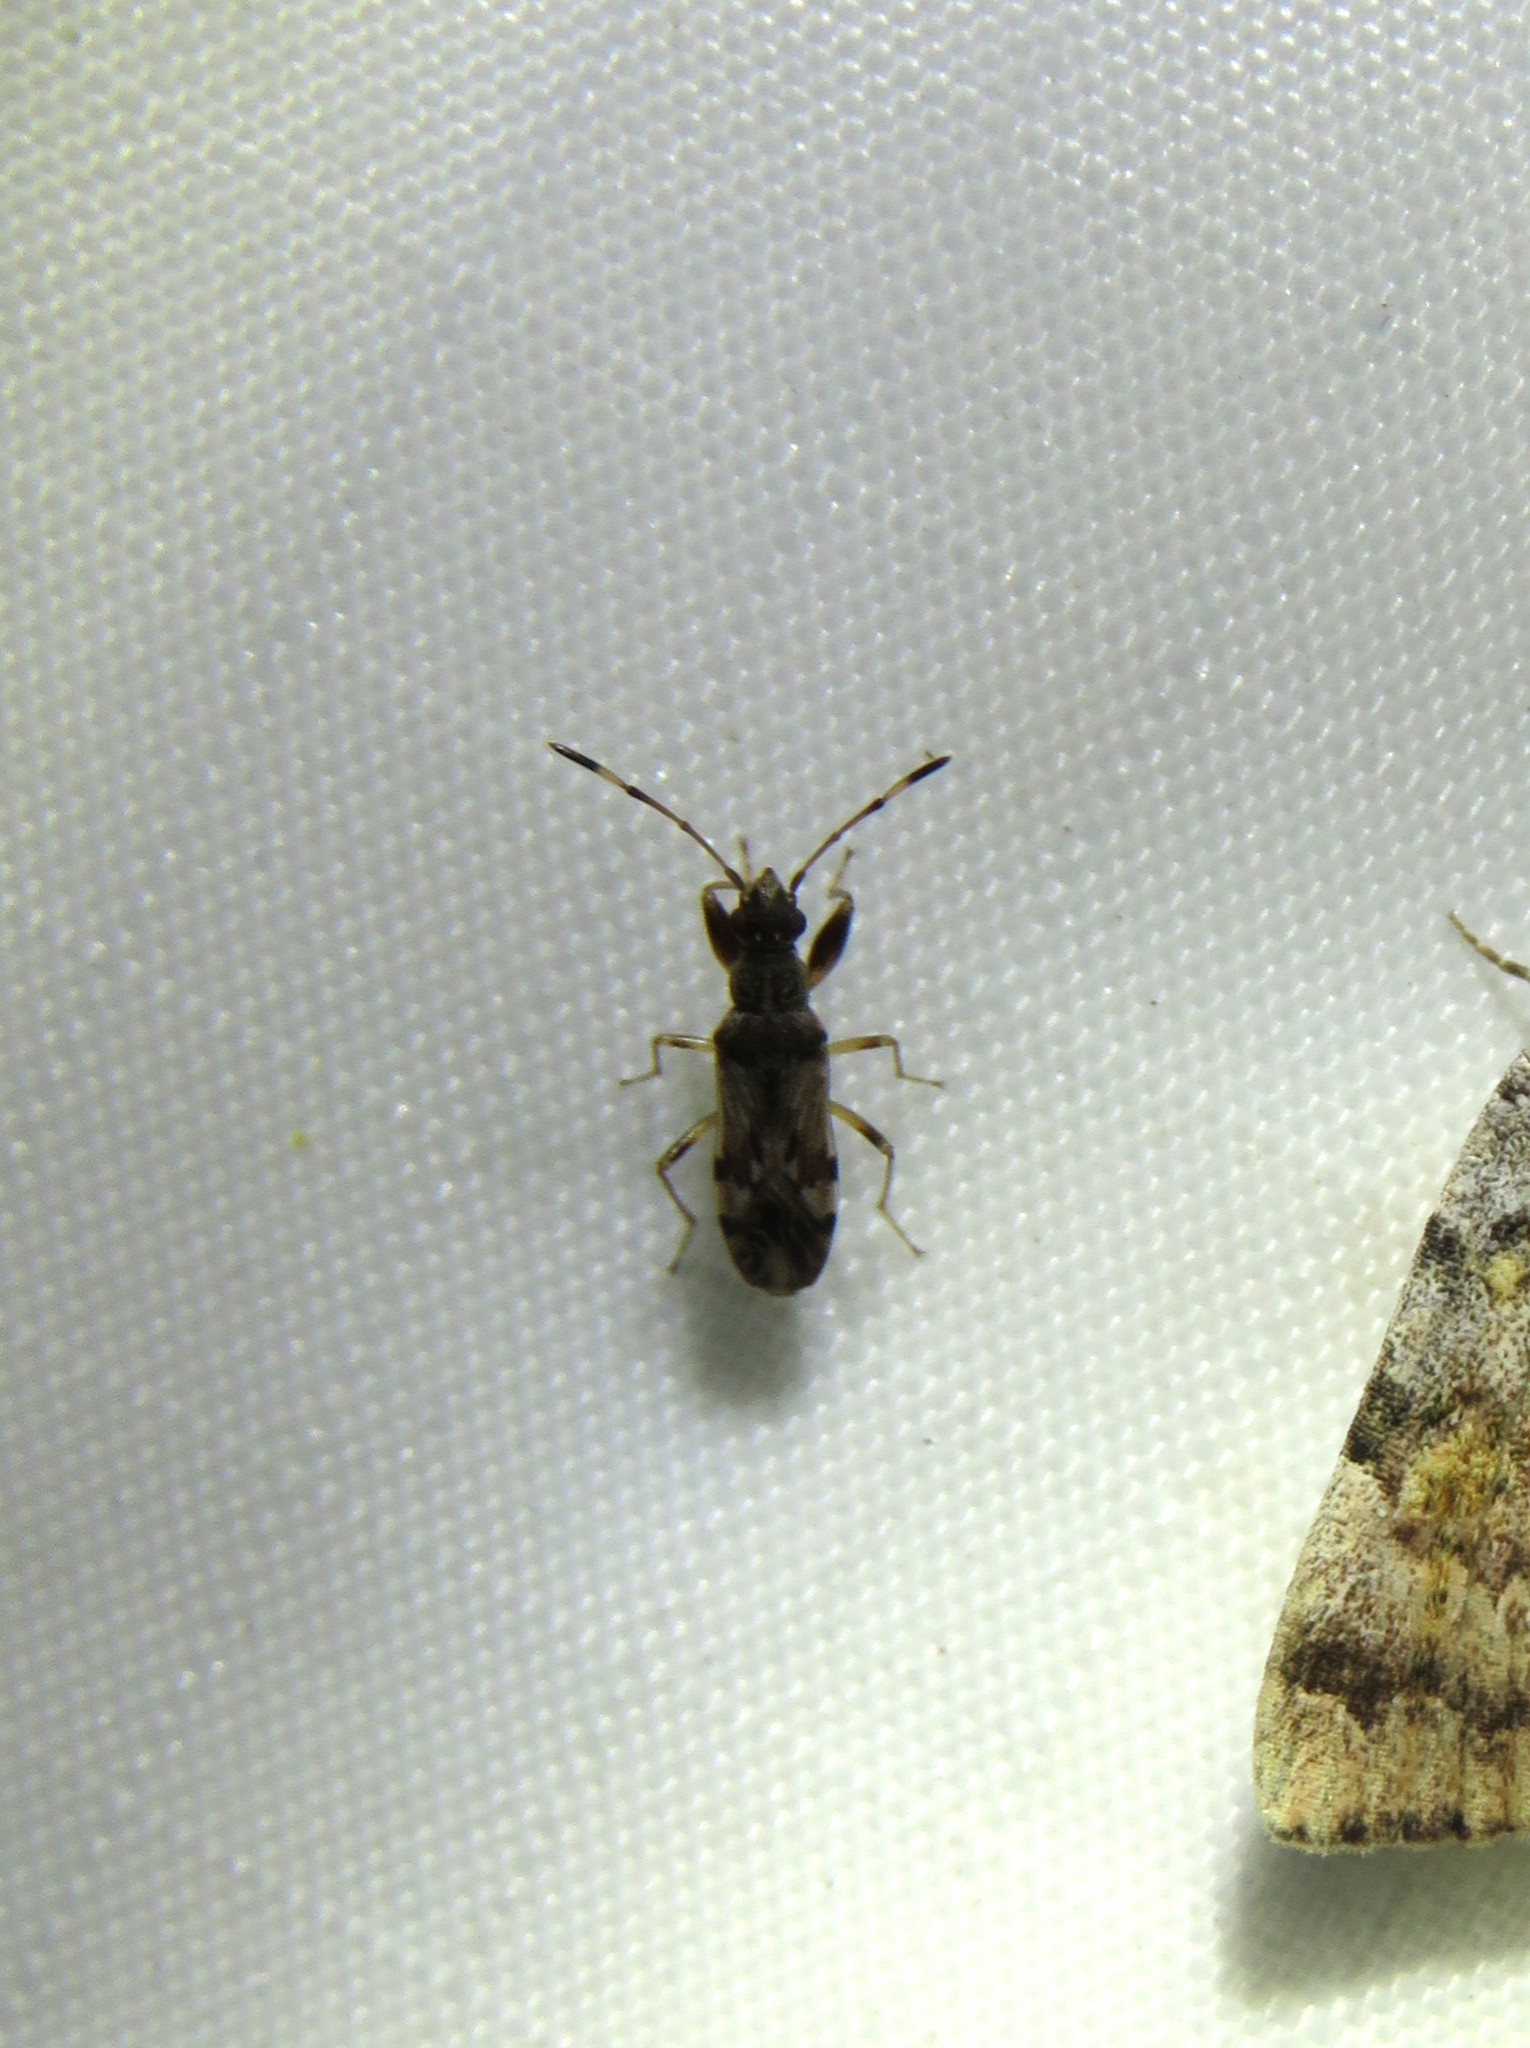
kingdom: Animalia
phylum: Arthropoda
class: Insecta
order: Hemiptera
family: Rhyparochromidae
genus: Neopamera
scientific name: Neopamera albocincta
